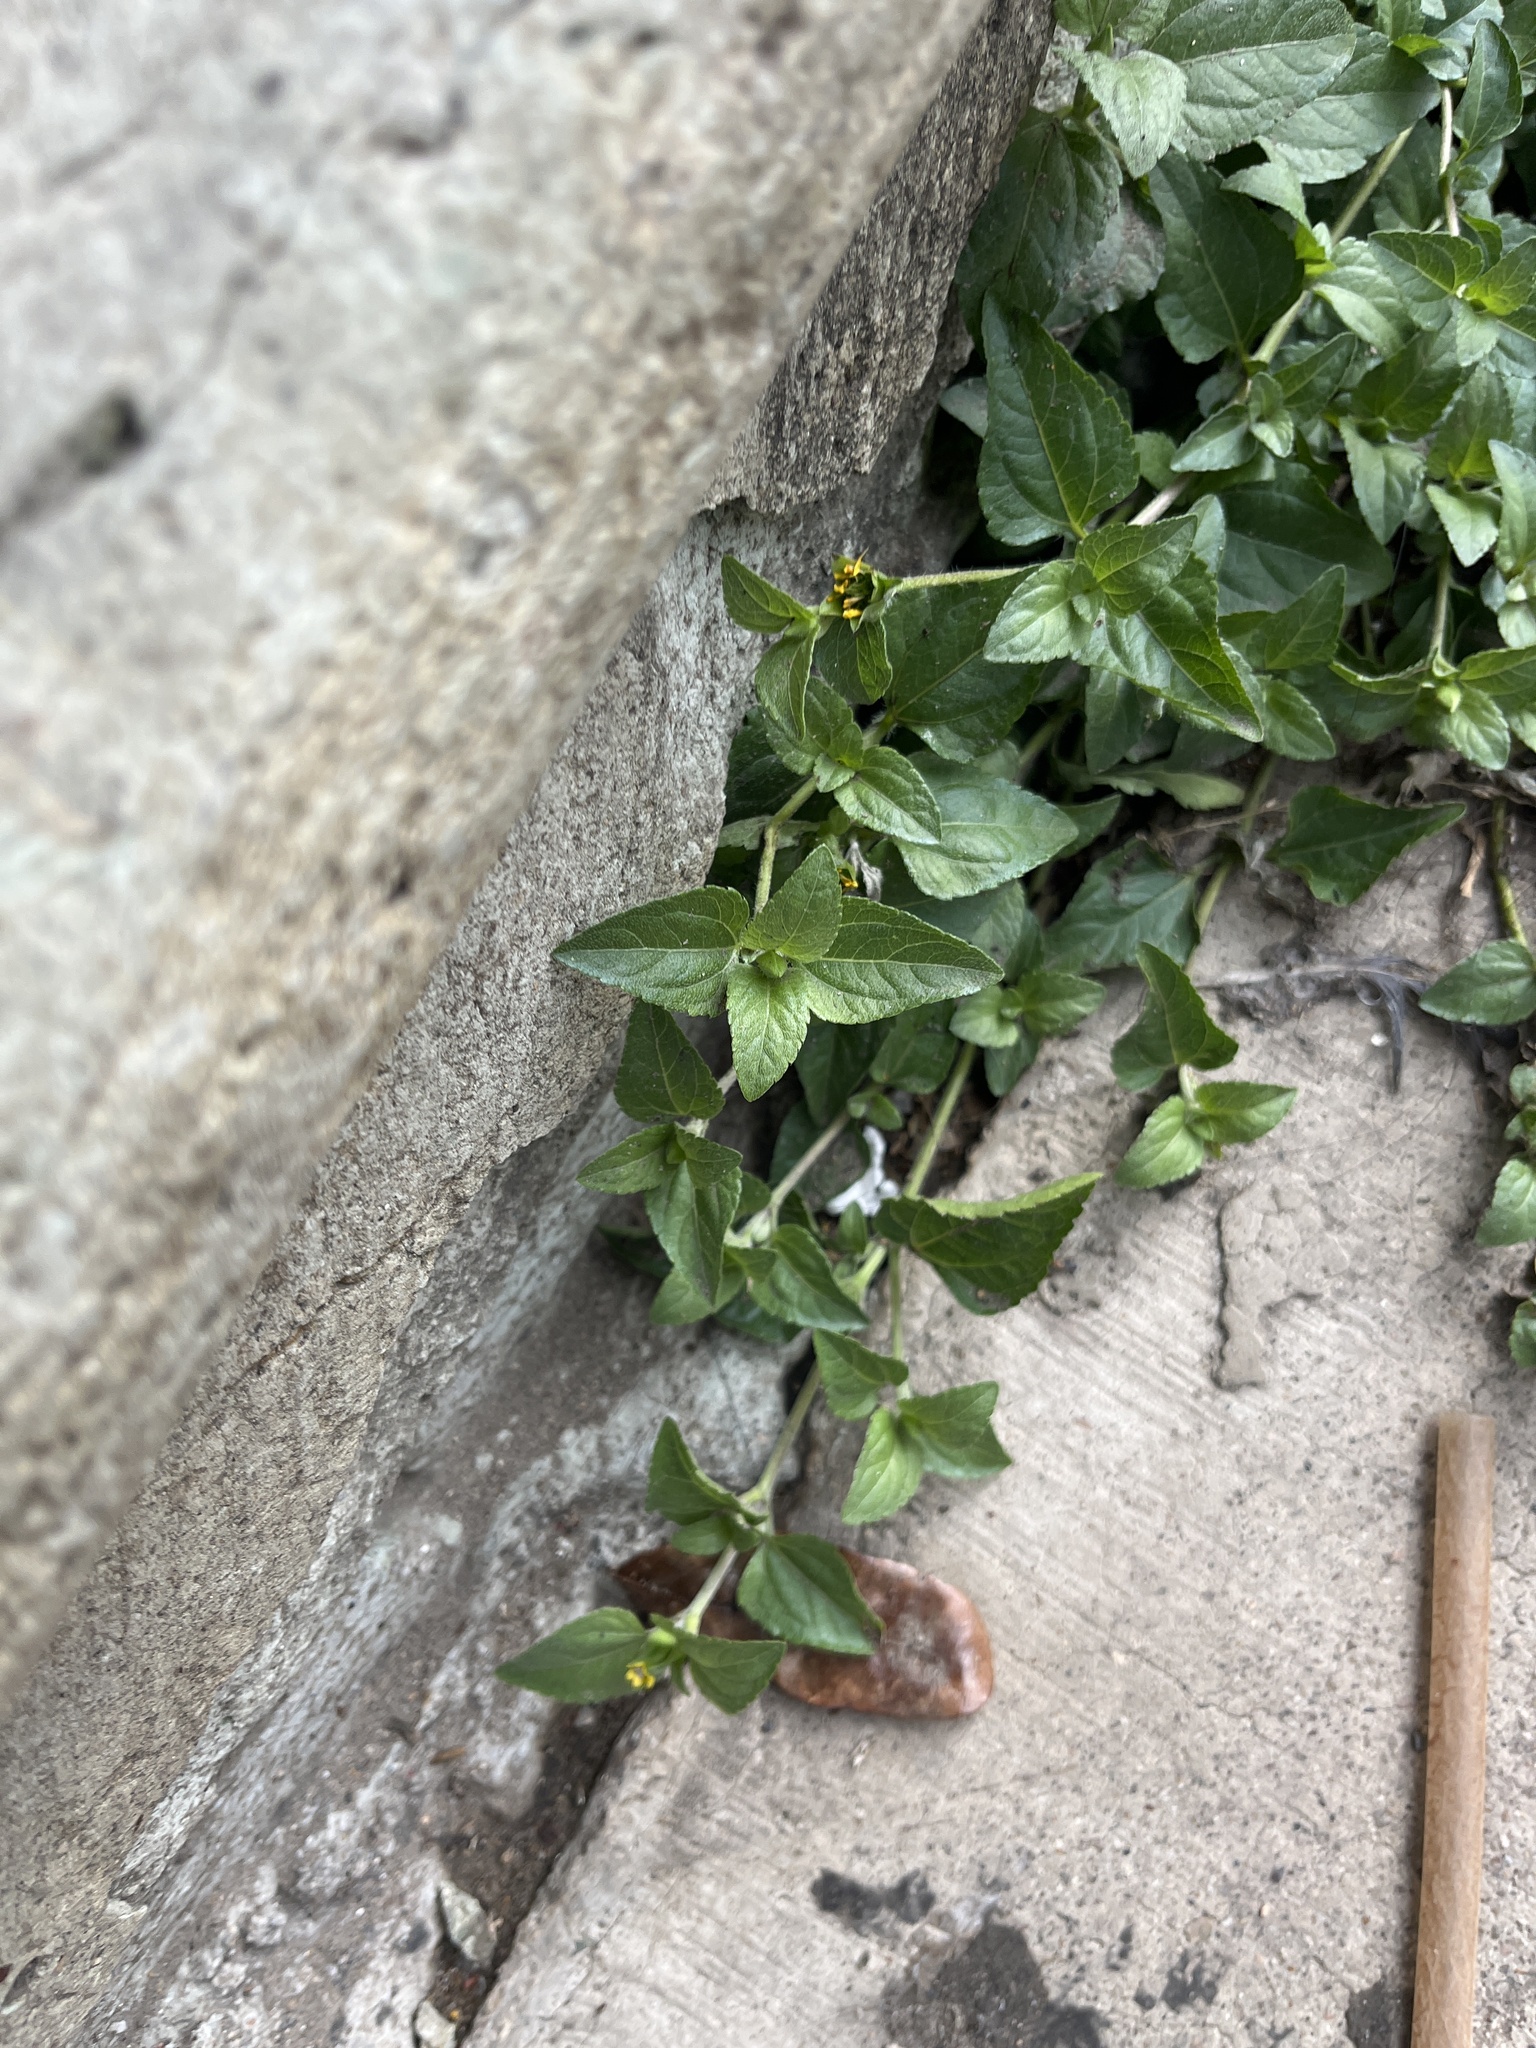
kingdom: Plantae
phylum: Tracheophyta
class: Magnoliopsida
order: Asterales
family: Asteraceae
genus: Calyptocarpus
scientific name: Calyptocarpus vialis
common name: Straggler daisy
